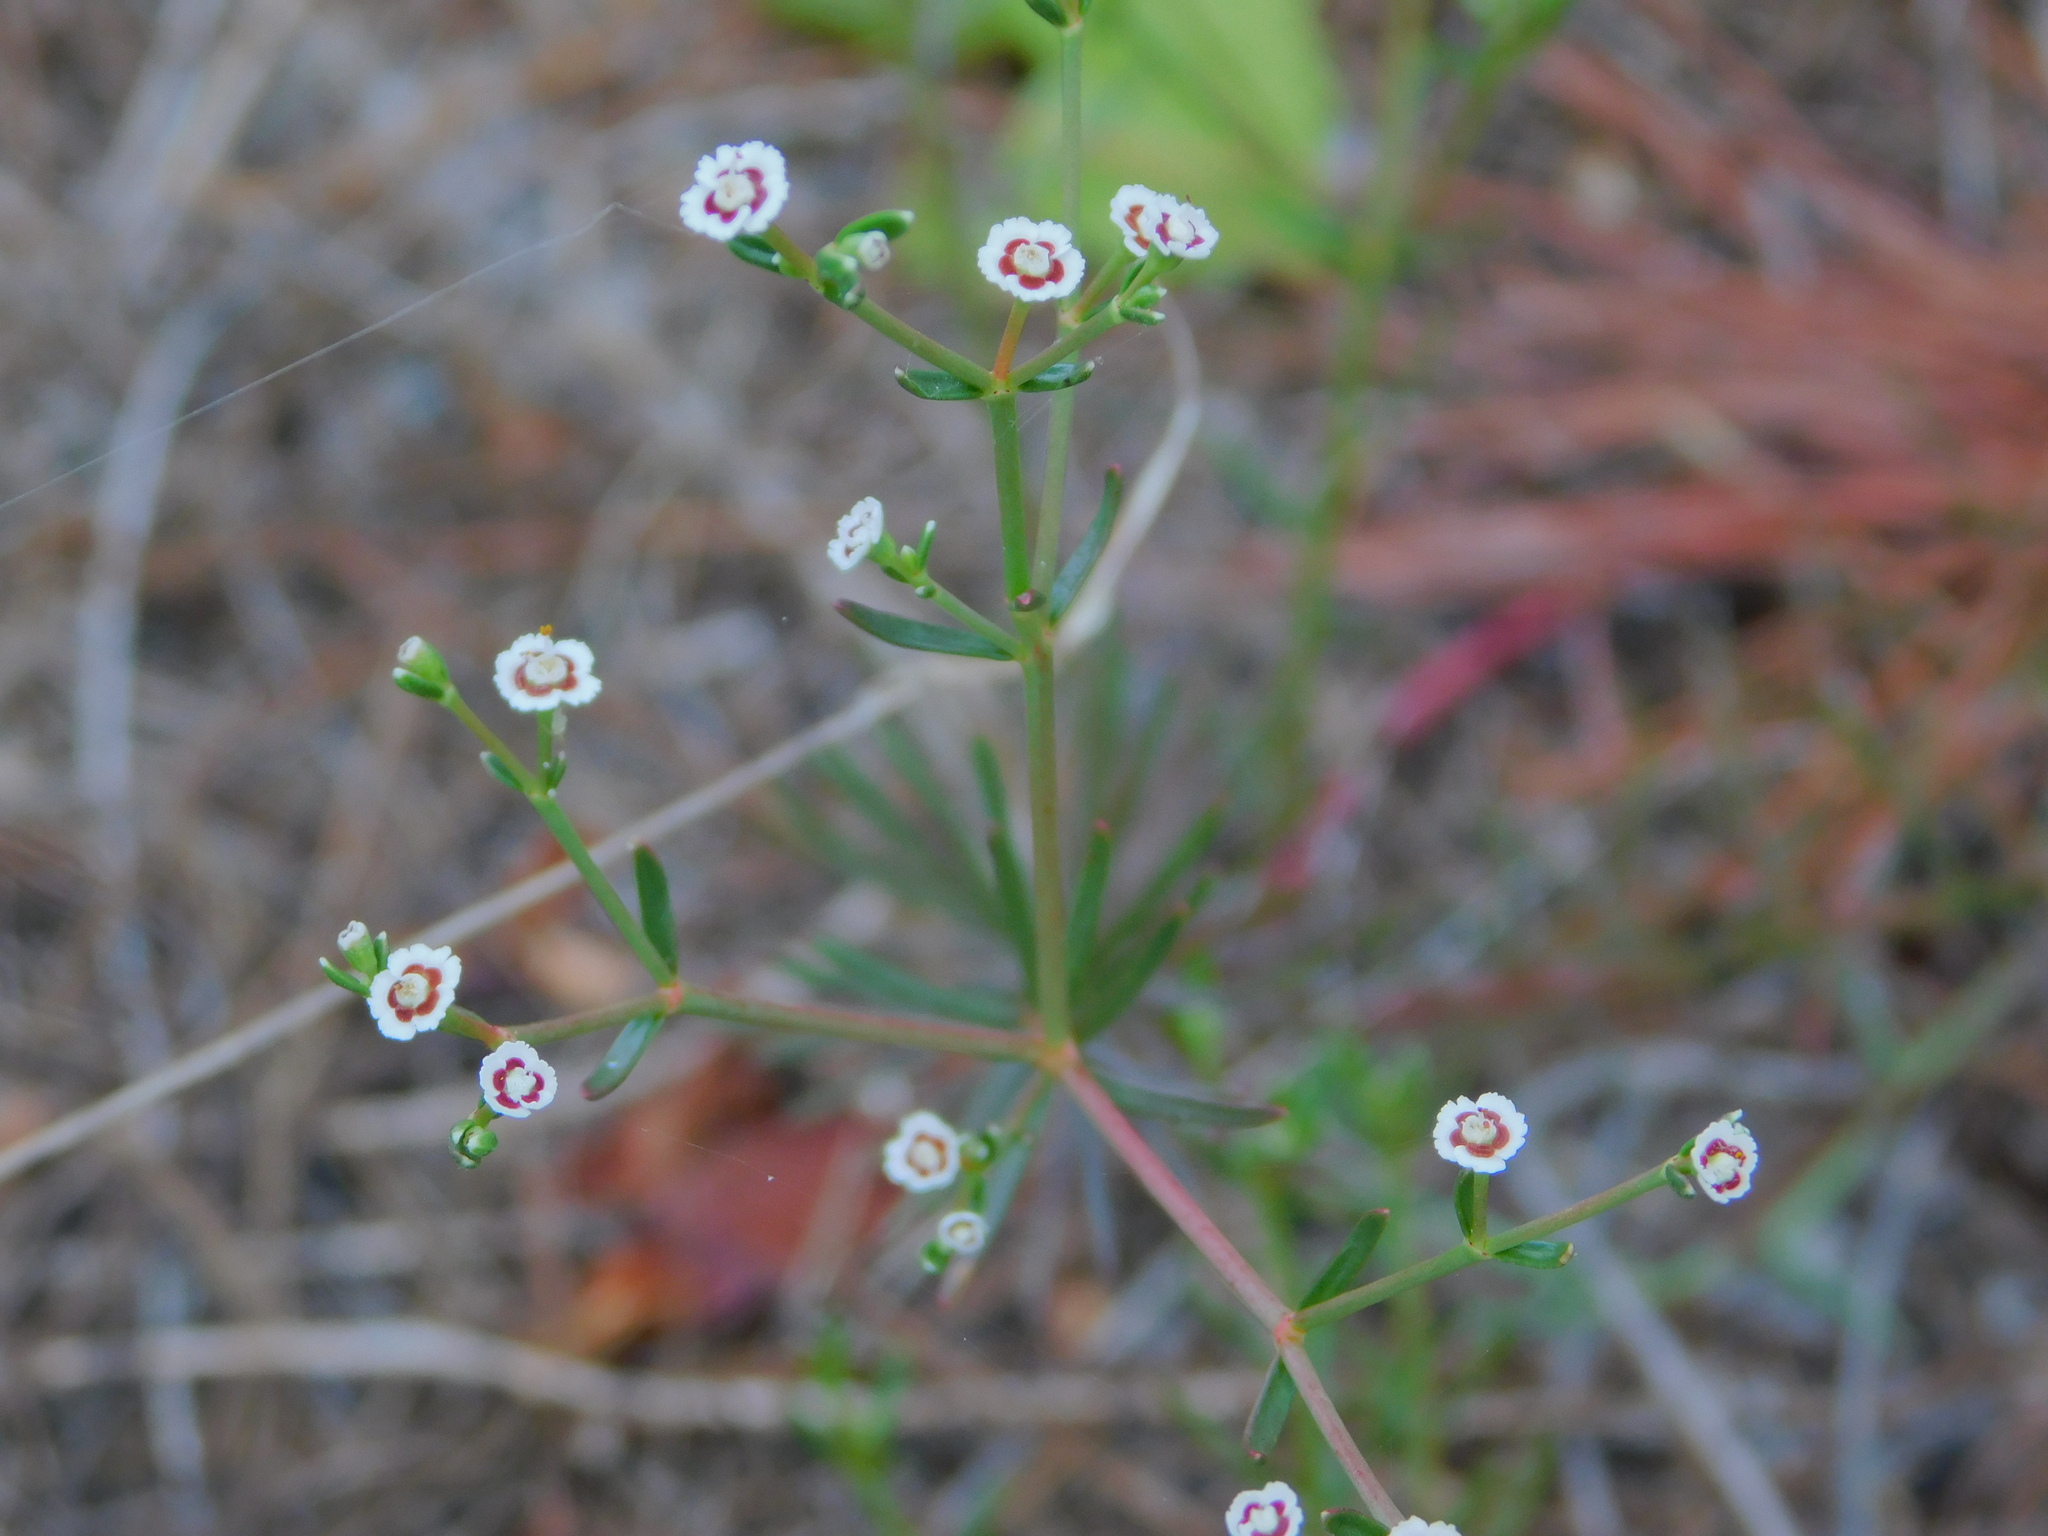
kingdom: Plantae
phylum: Tracheophyta
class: Magnoliopsida
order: Malpighiales
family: Euphorbiaceae
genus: Euphorbia
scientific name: Euphorbia polyphylla
